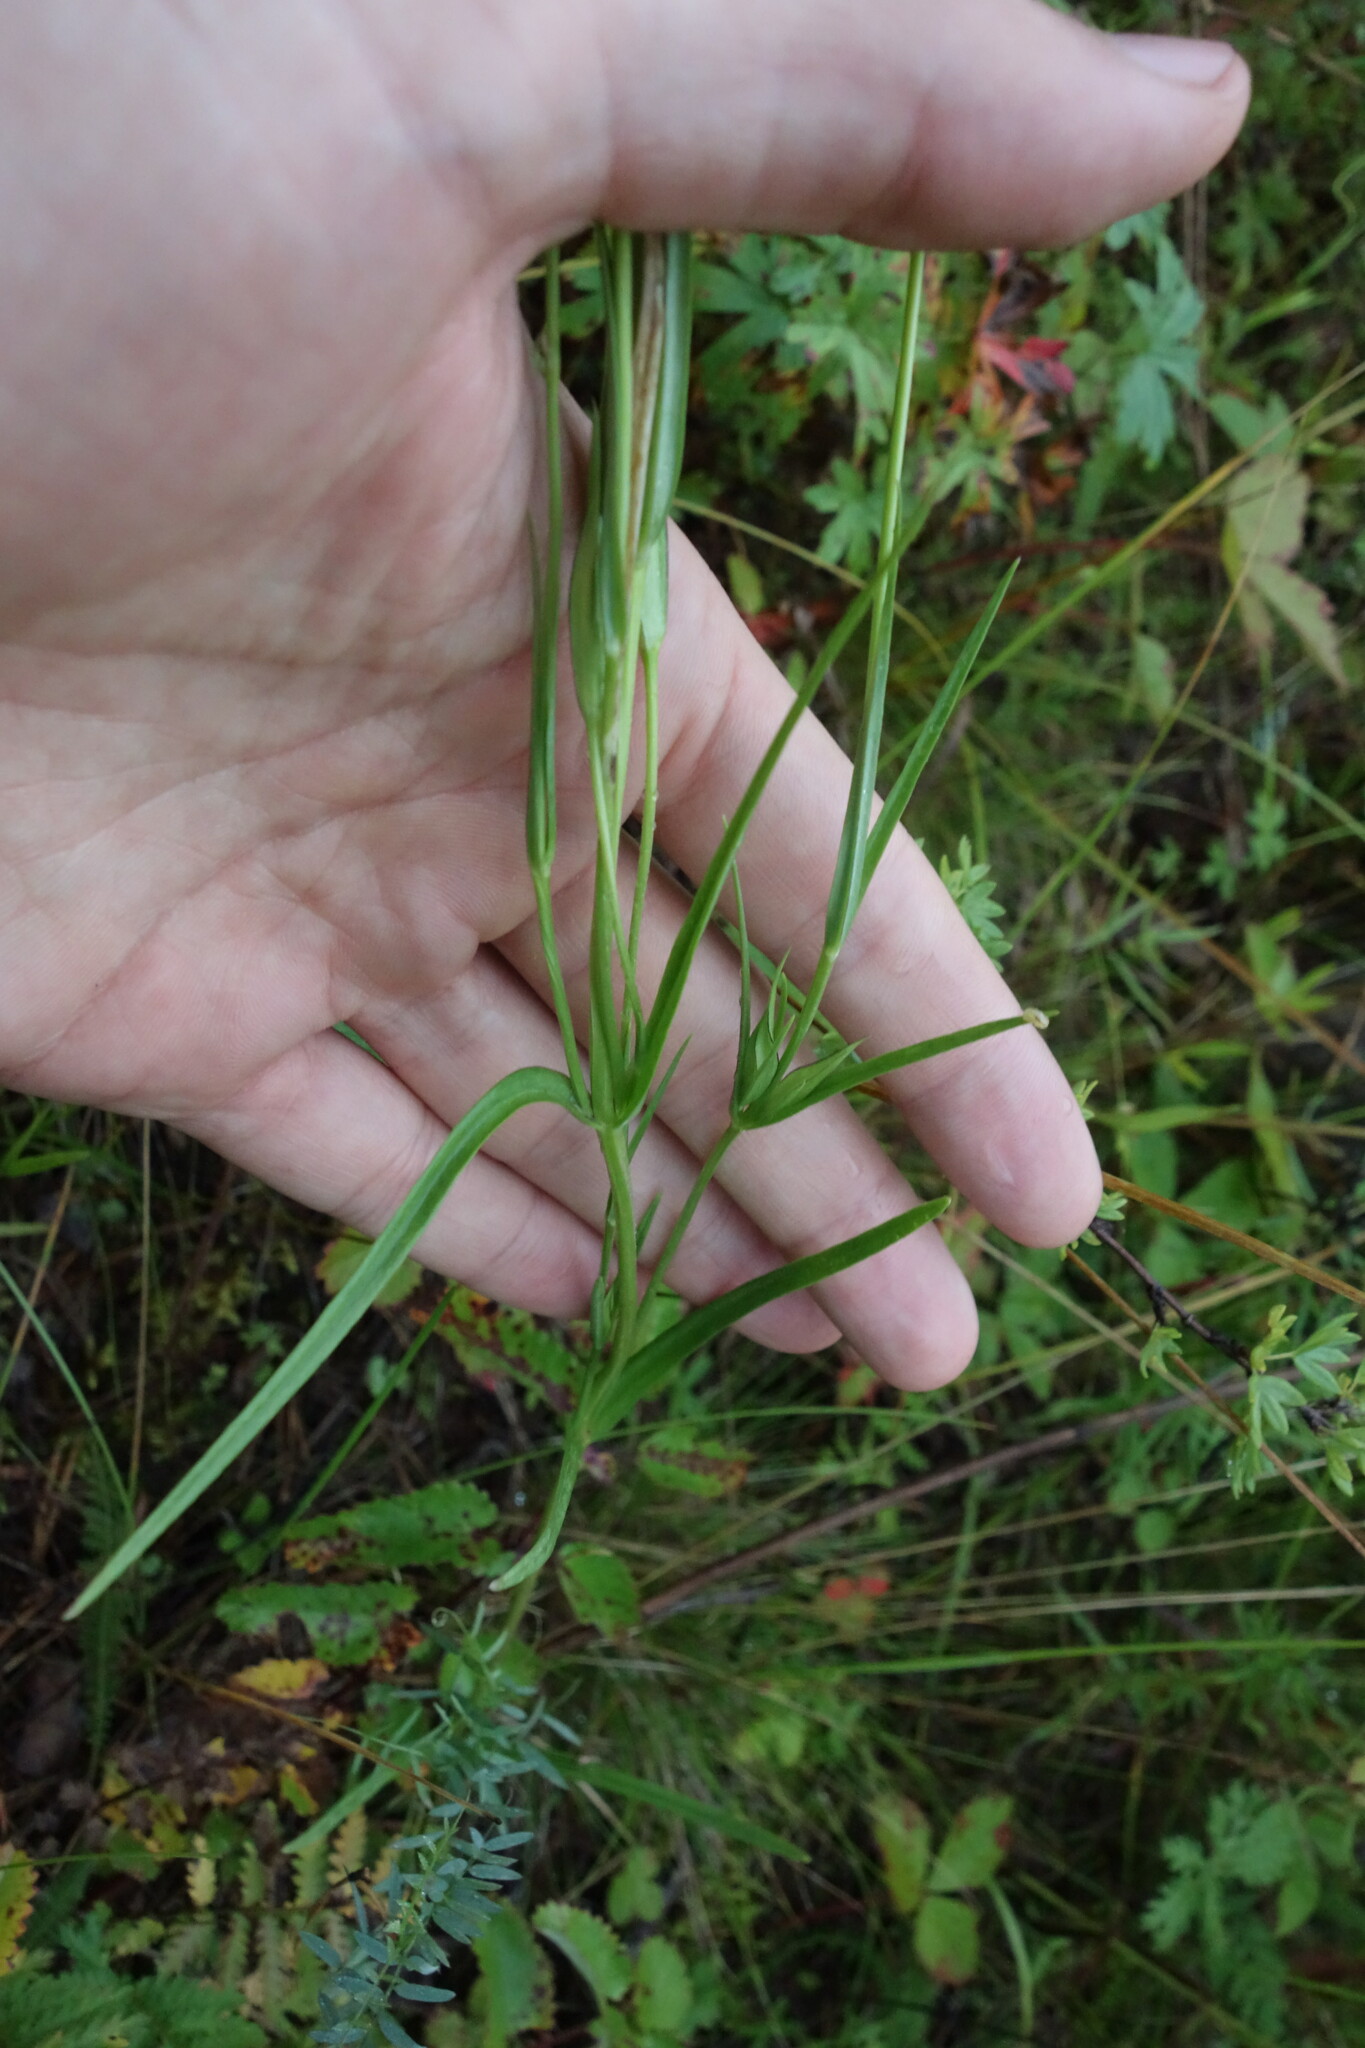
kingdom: Plantae
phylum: Tracheophyta
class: Magnoliopsida
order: Gentianales
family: Gentianaceae
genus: Gentianopsis
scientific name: Gentianopsis barbata
